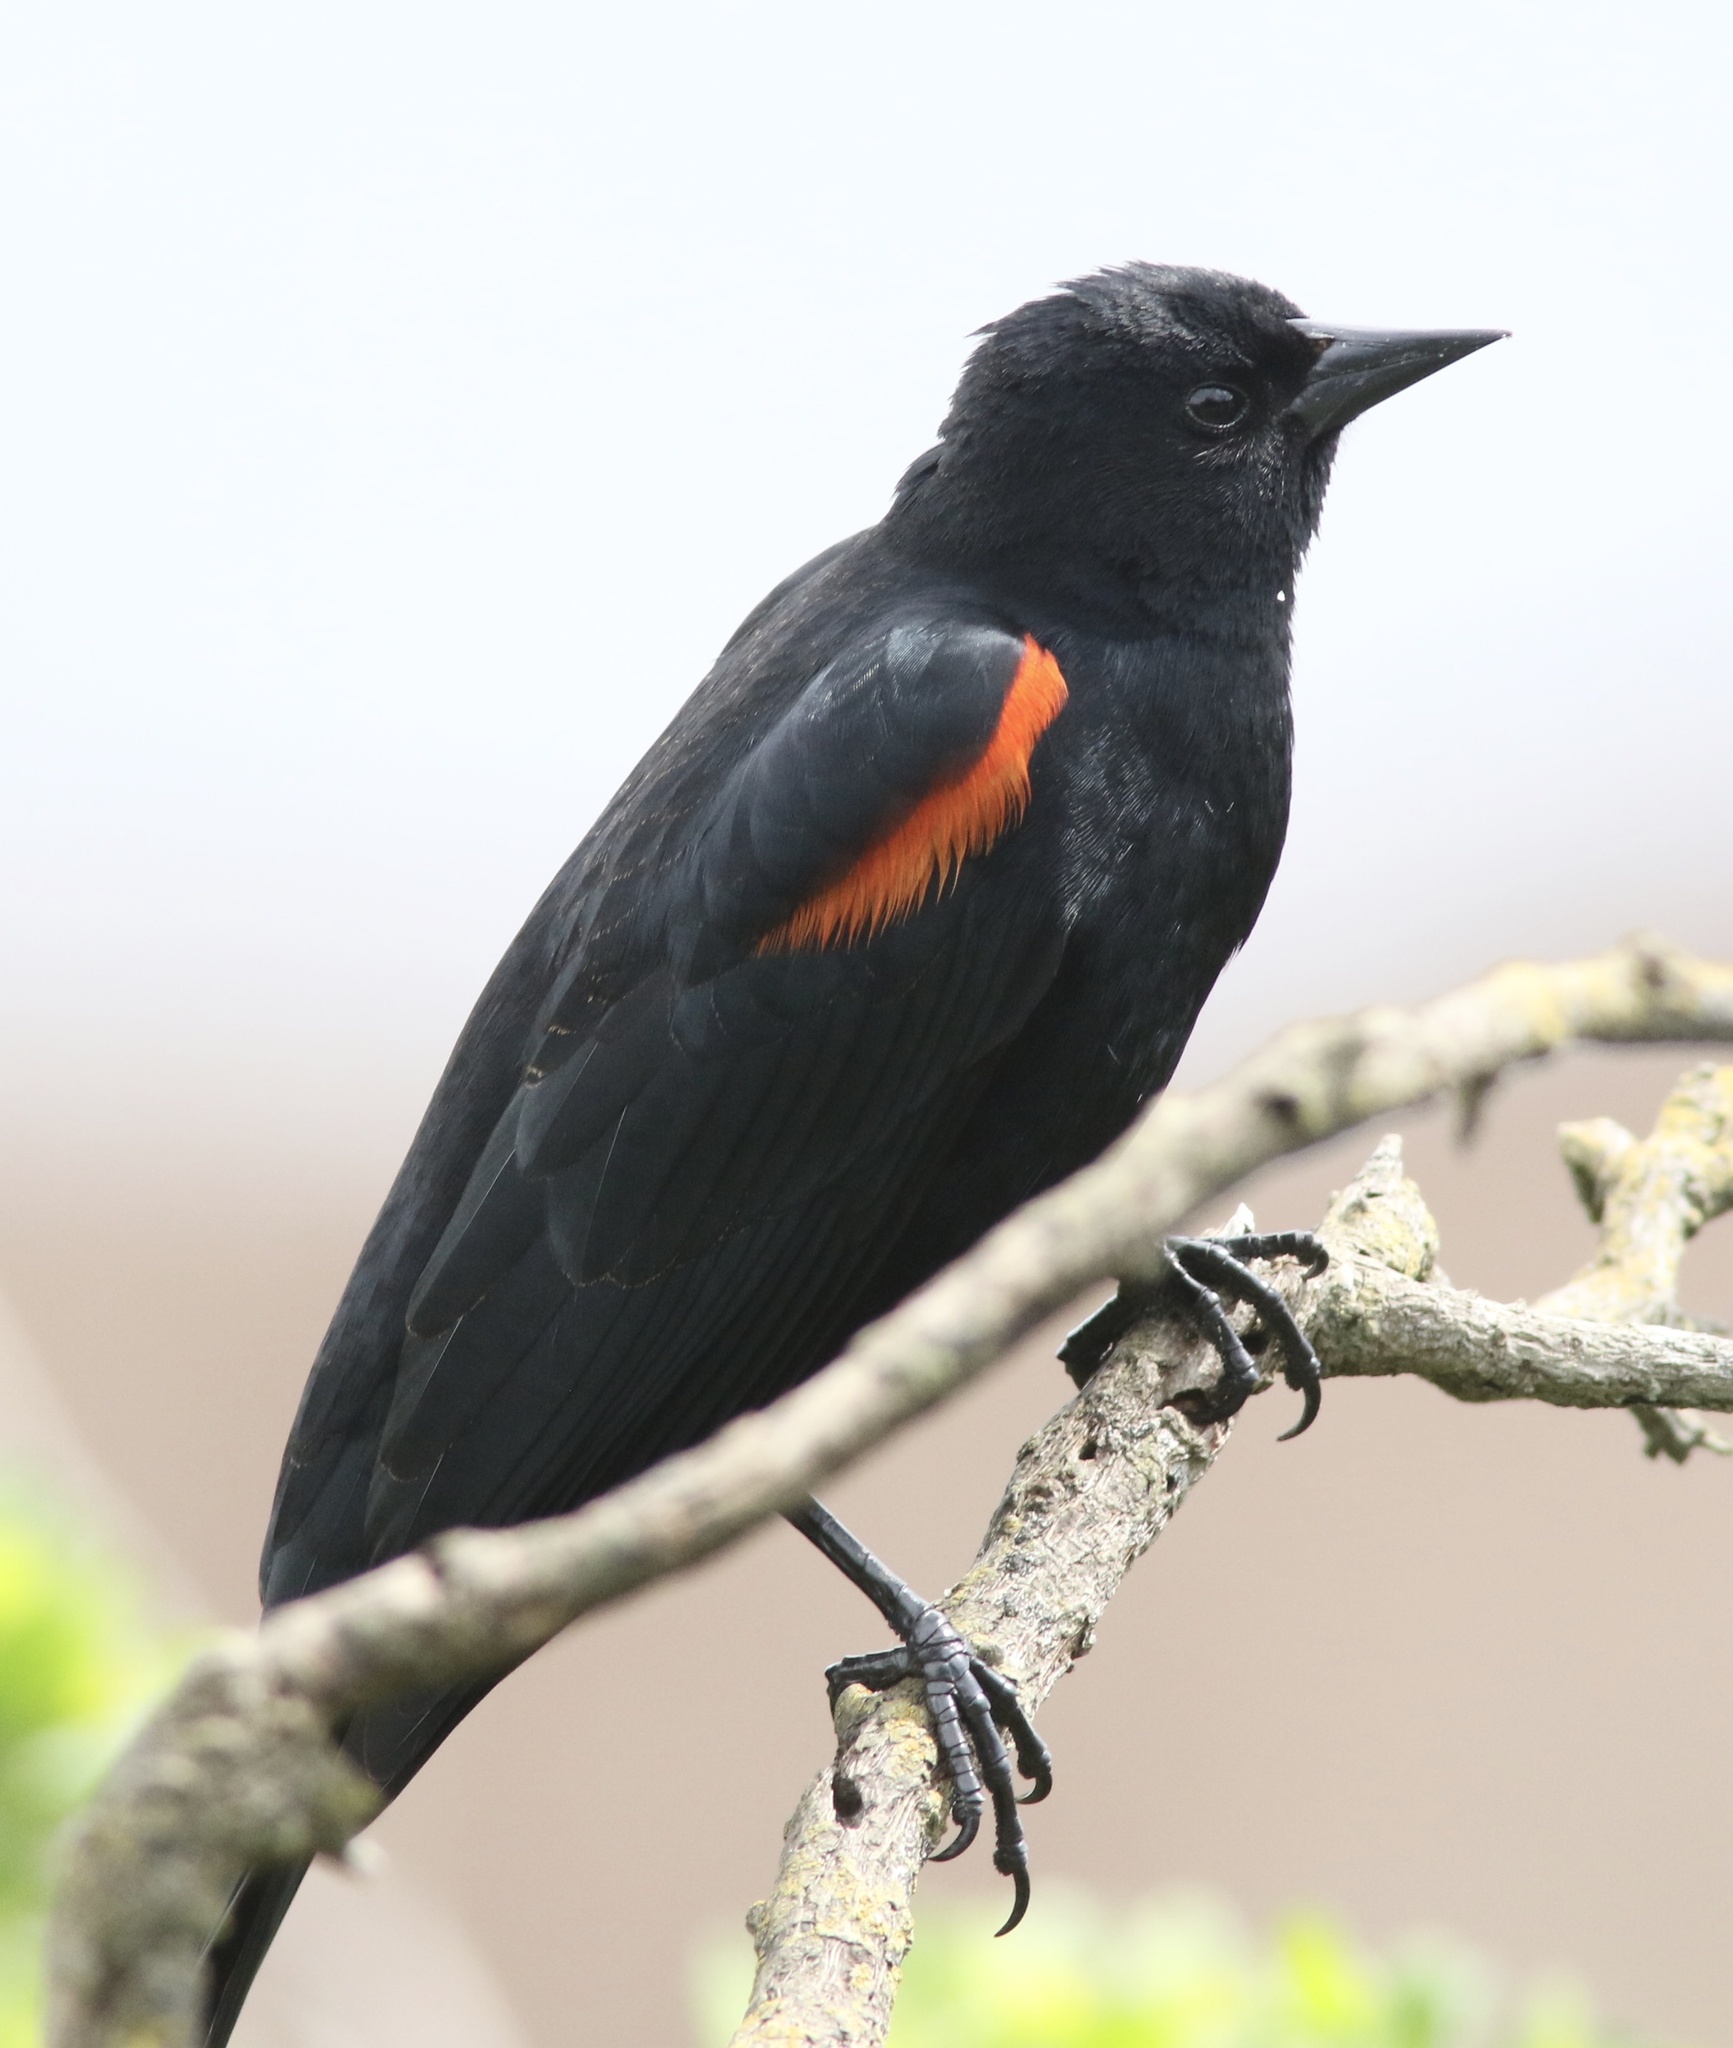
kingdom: Animalia
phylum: Chordata
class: Aves
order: Passeriformes
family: Icteridae
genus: Agelaius
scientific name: Agelaius phoeniceus
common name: Red-winged blackbird
